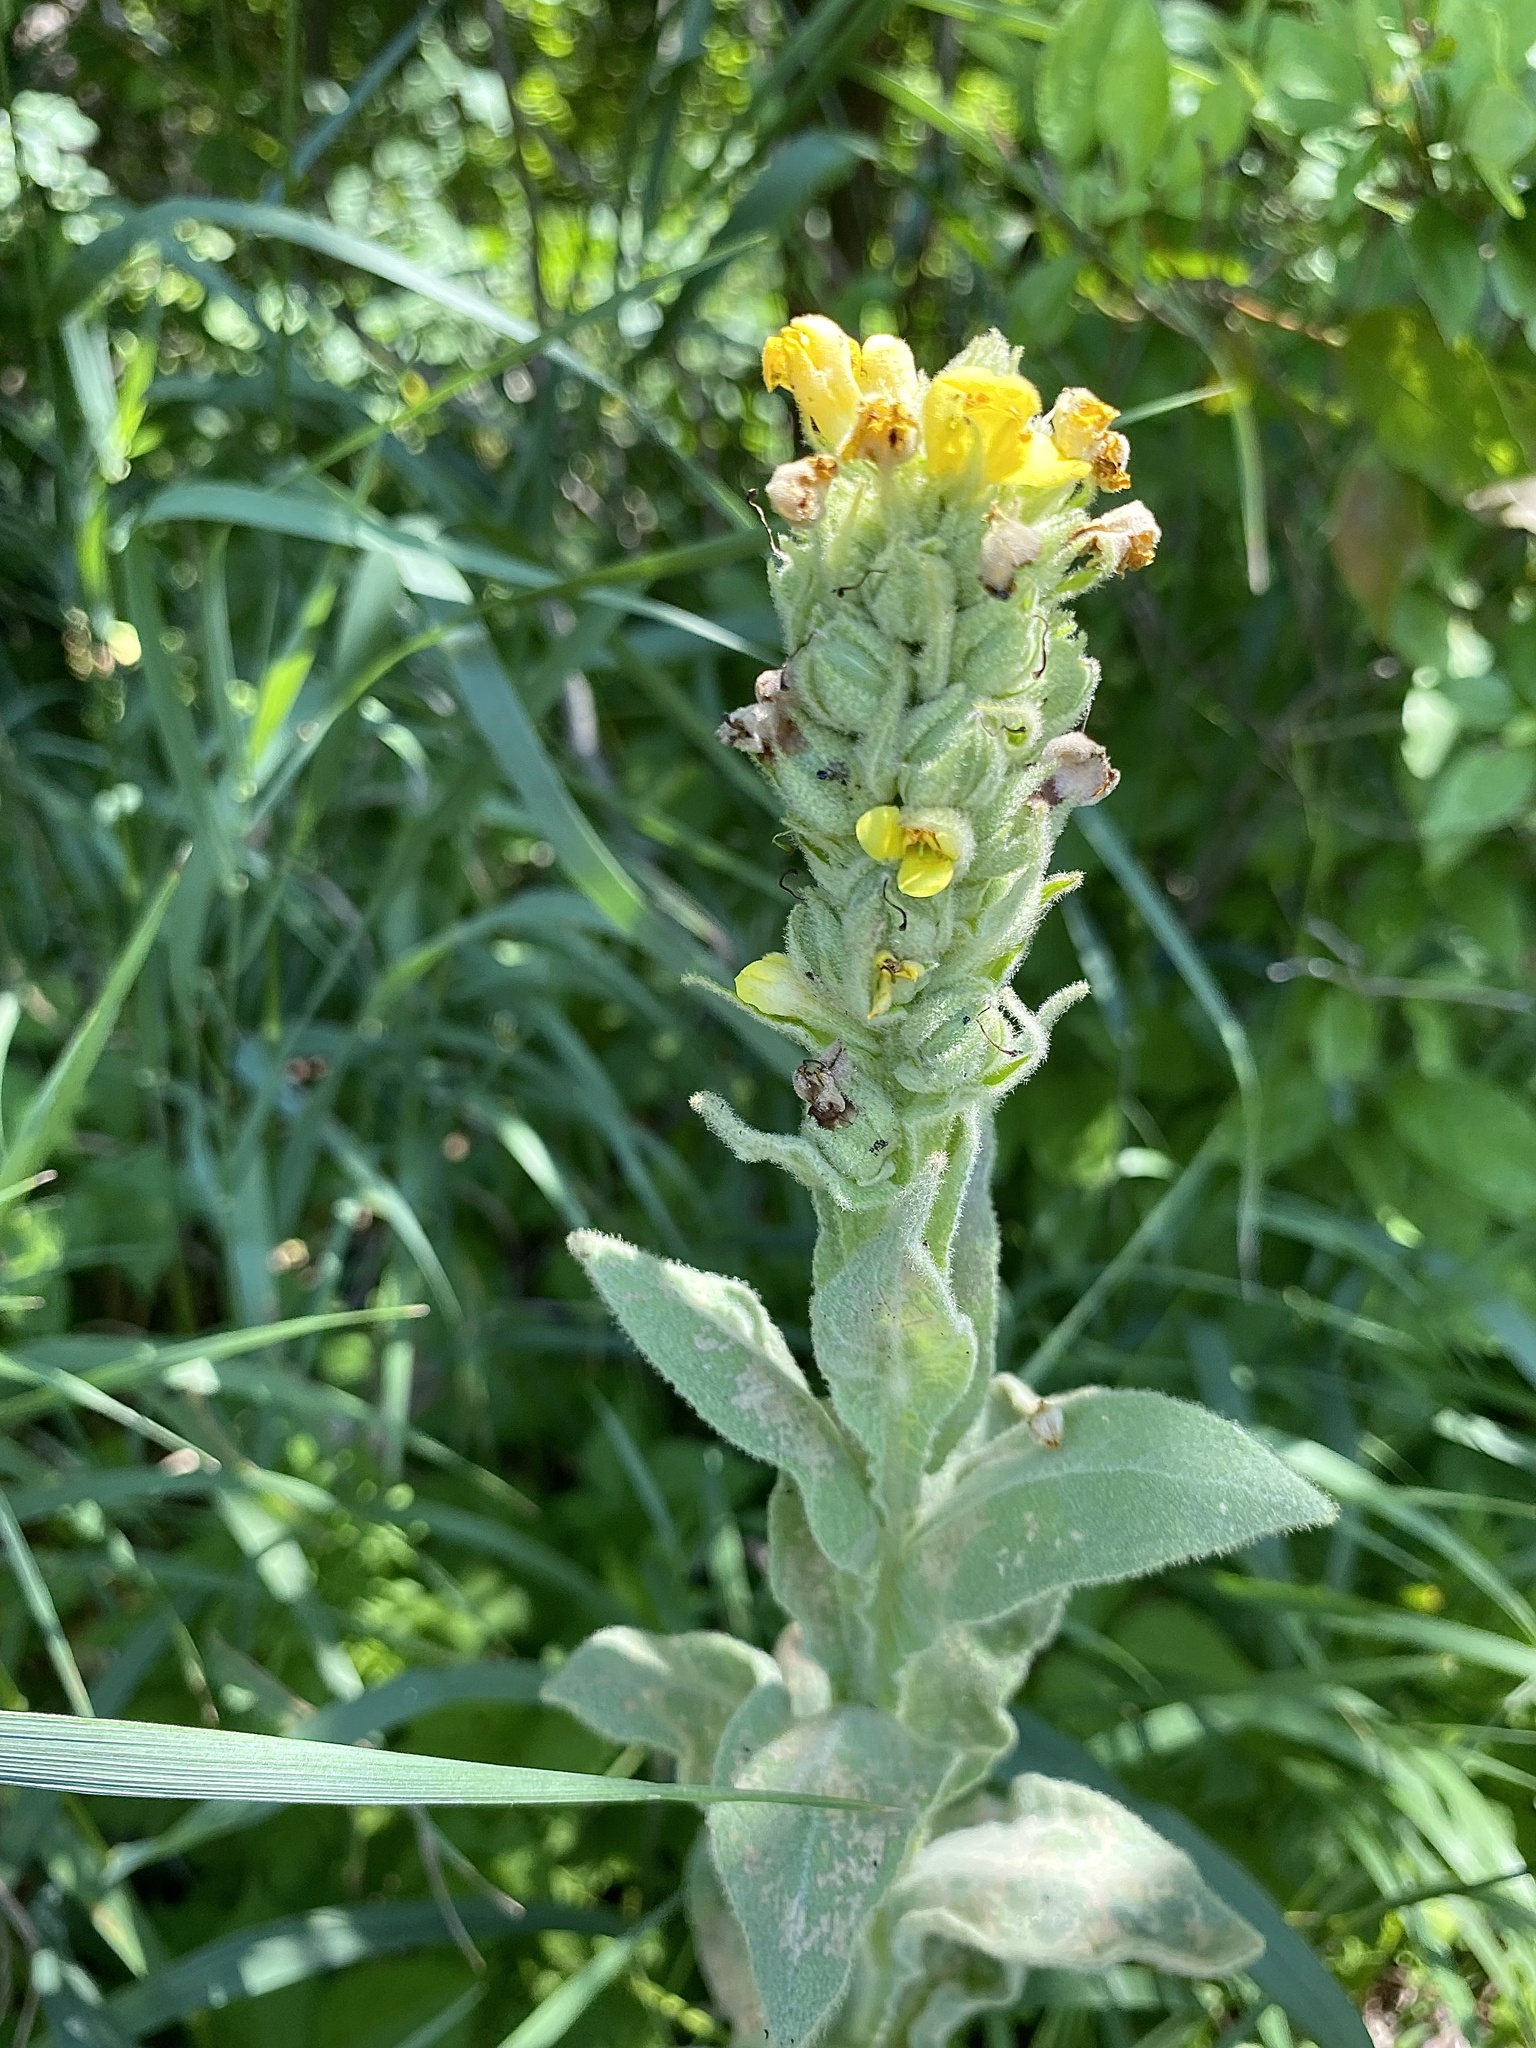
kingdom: Plantae
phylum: Tracheophyta
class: Magnoliopsida
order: Lamiales
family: Scrophulariaceae
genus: Verbascum
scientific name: Verbascum thapsus
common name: Common mullein
